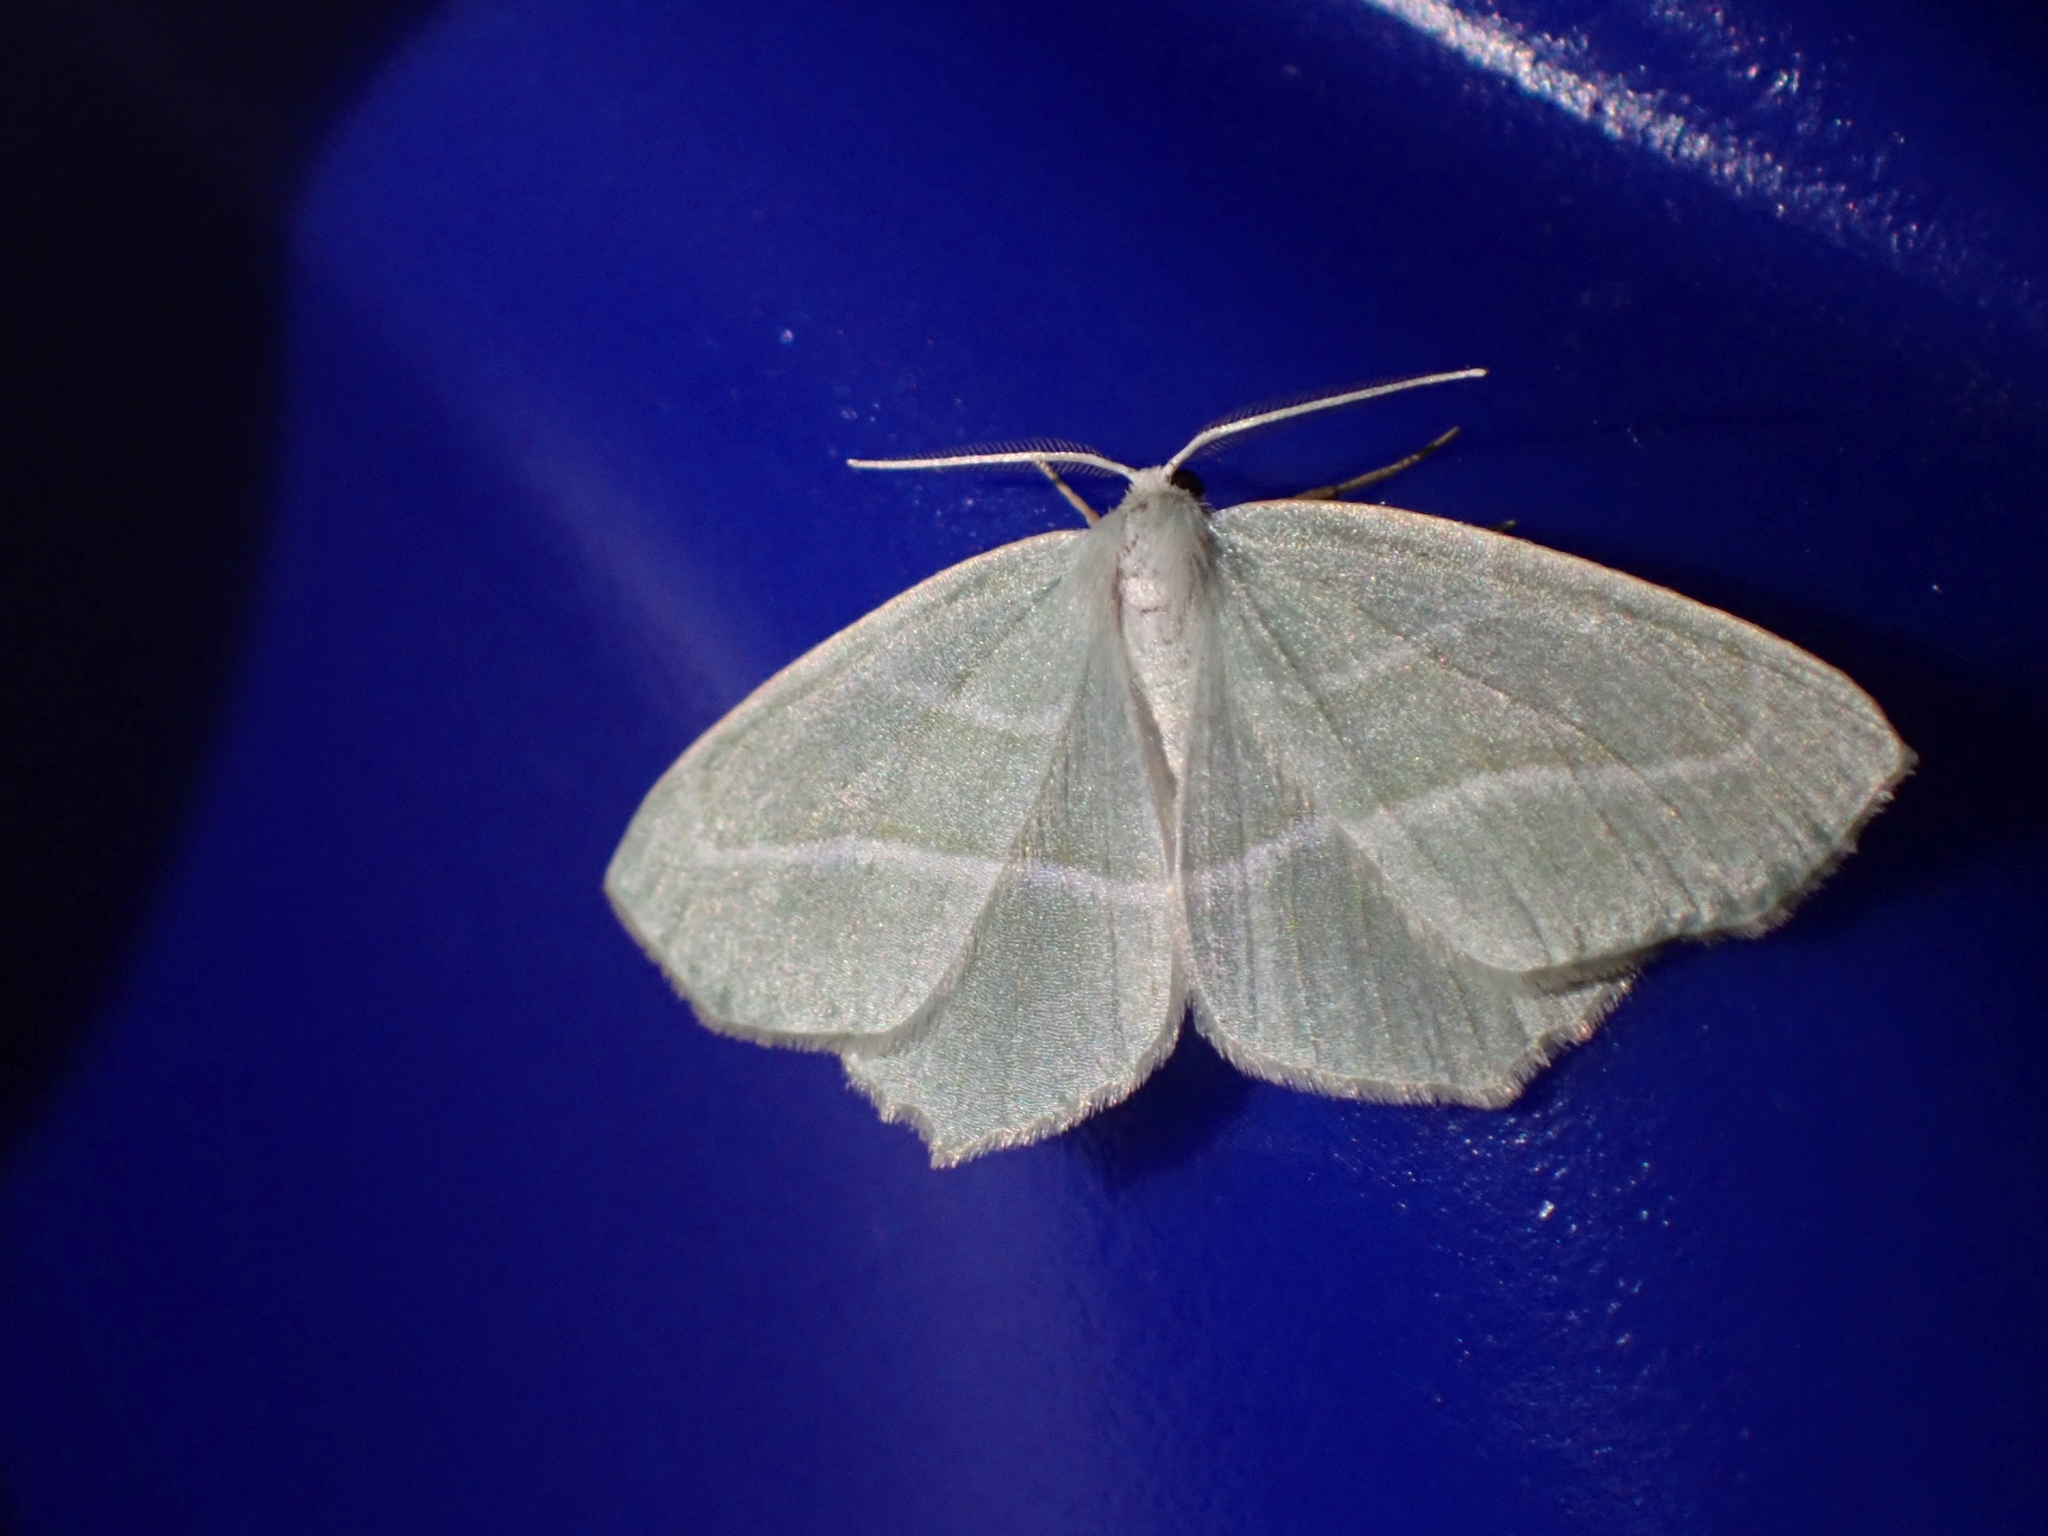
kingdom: Animalia
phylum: Arthropoda
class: Insecta
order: Lepidoptera
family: Geometridae
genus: Campaea
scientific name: Campaea perlata
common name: Fringed looper
